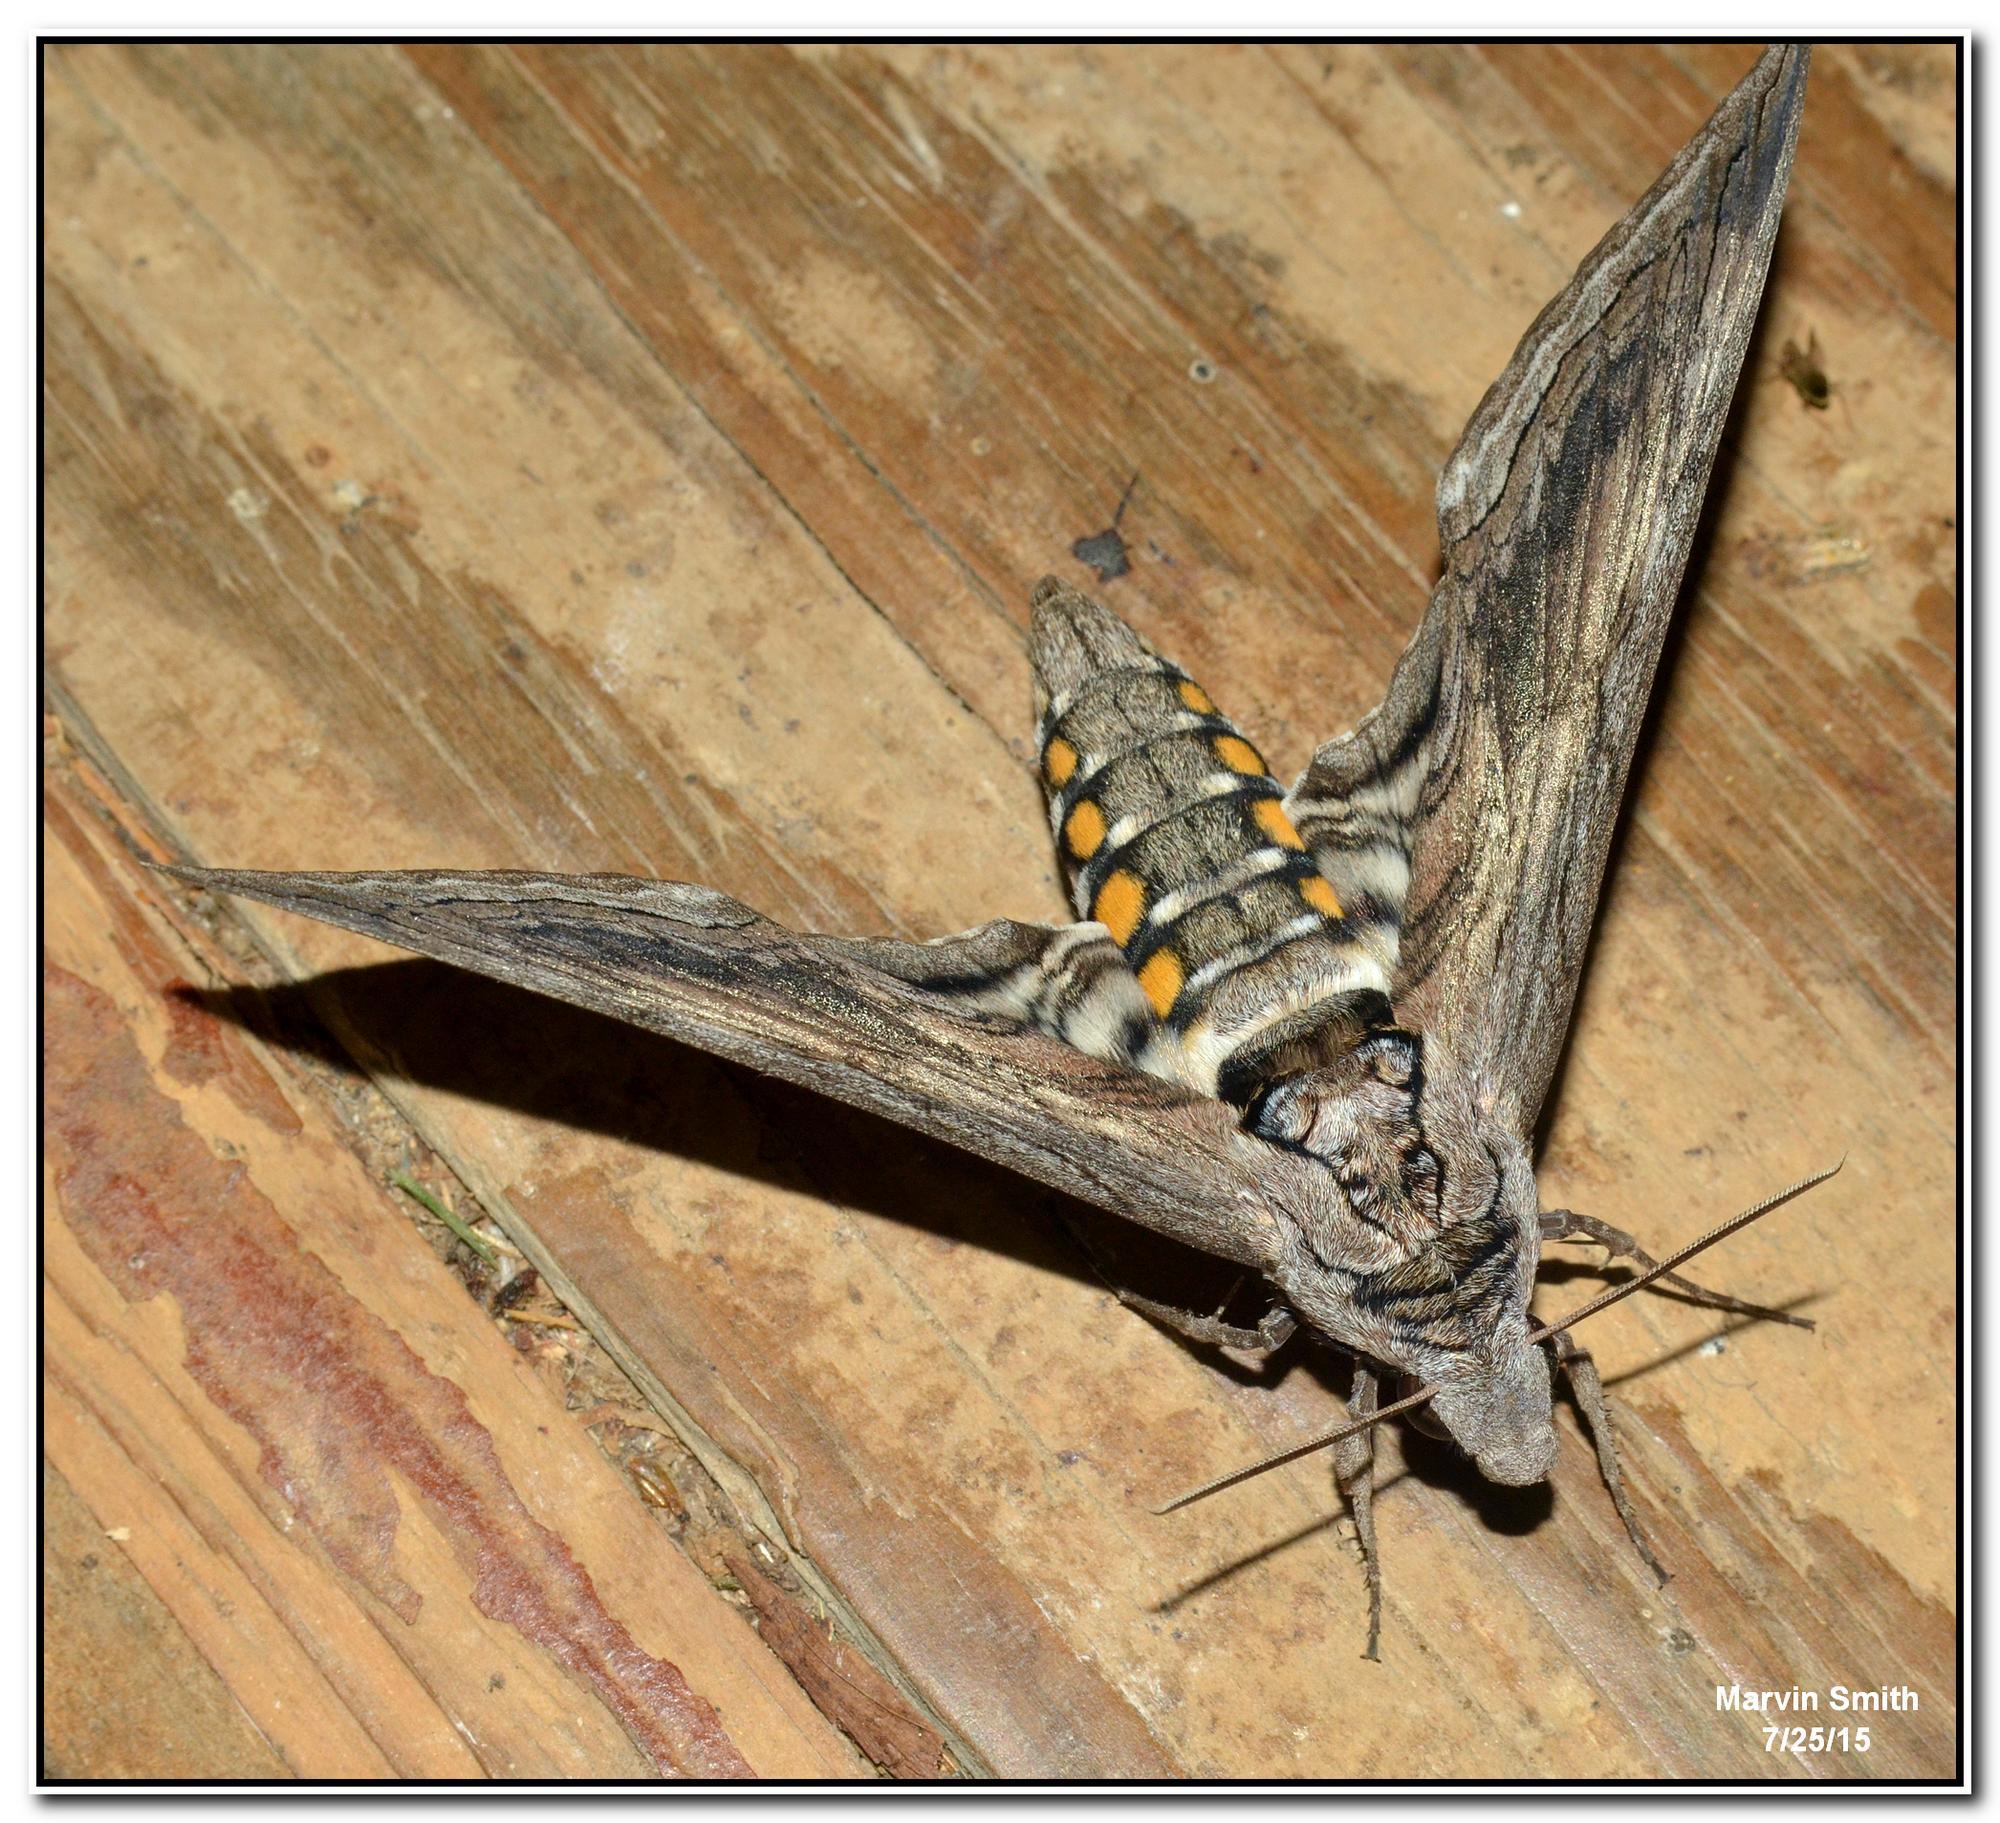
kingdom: Animalia
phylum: Arthropoda
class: Insecta
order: Lepidoptera
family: Sphingidae
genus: Manduca
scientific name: Manduca quinquemaculatus
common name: Five-spotted hawk-moth
